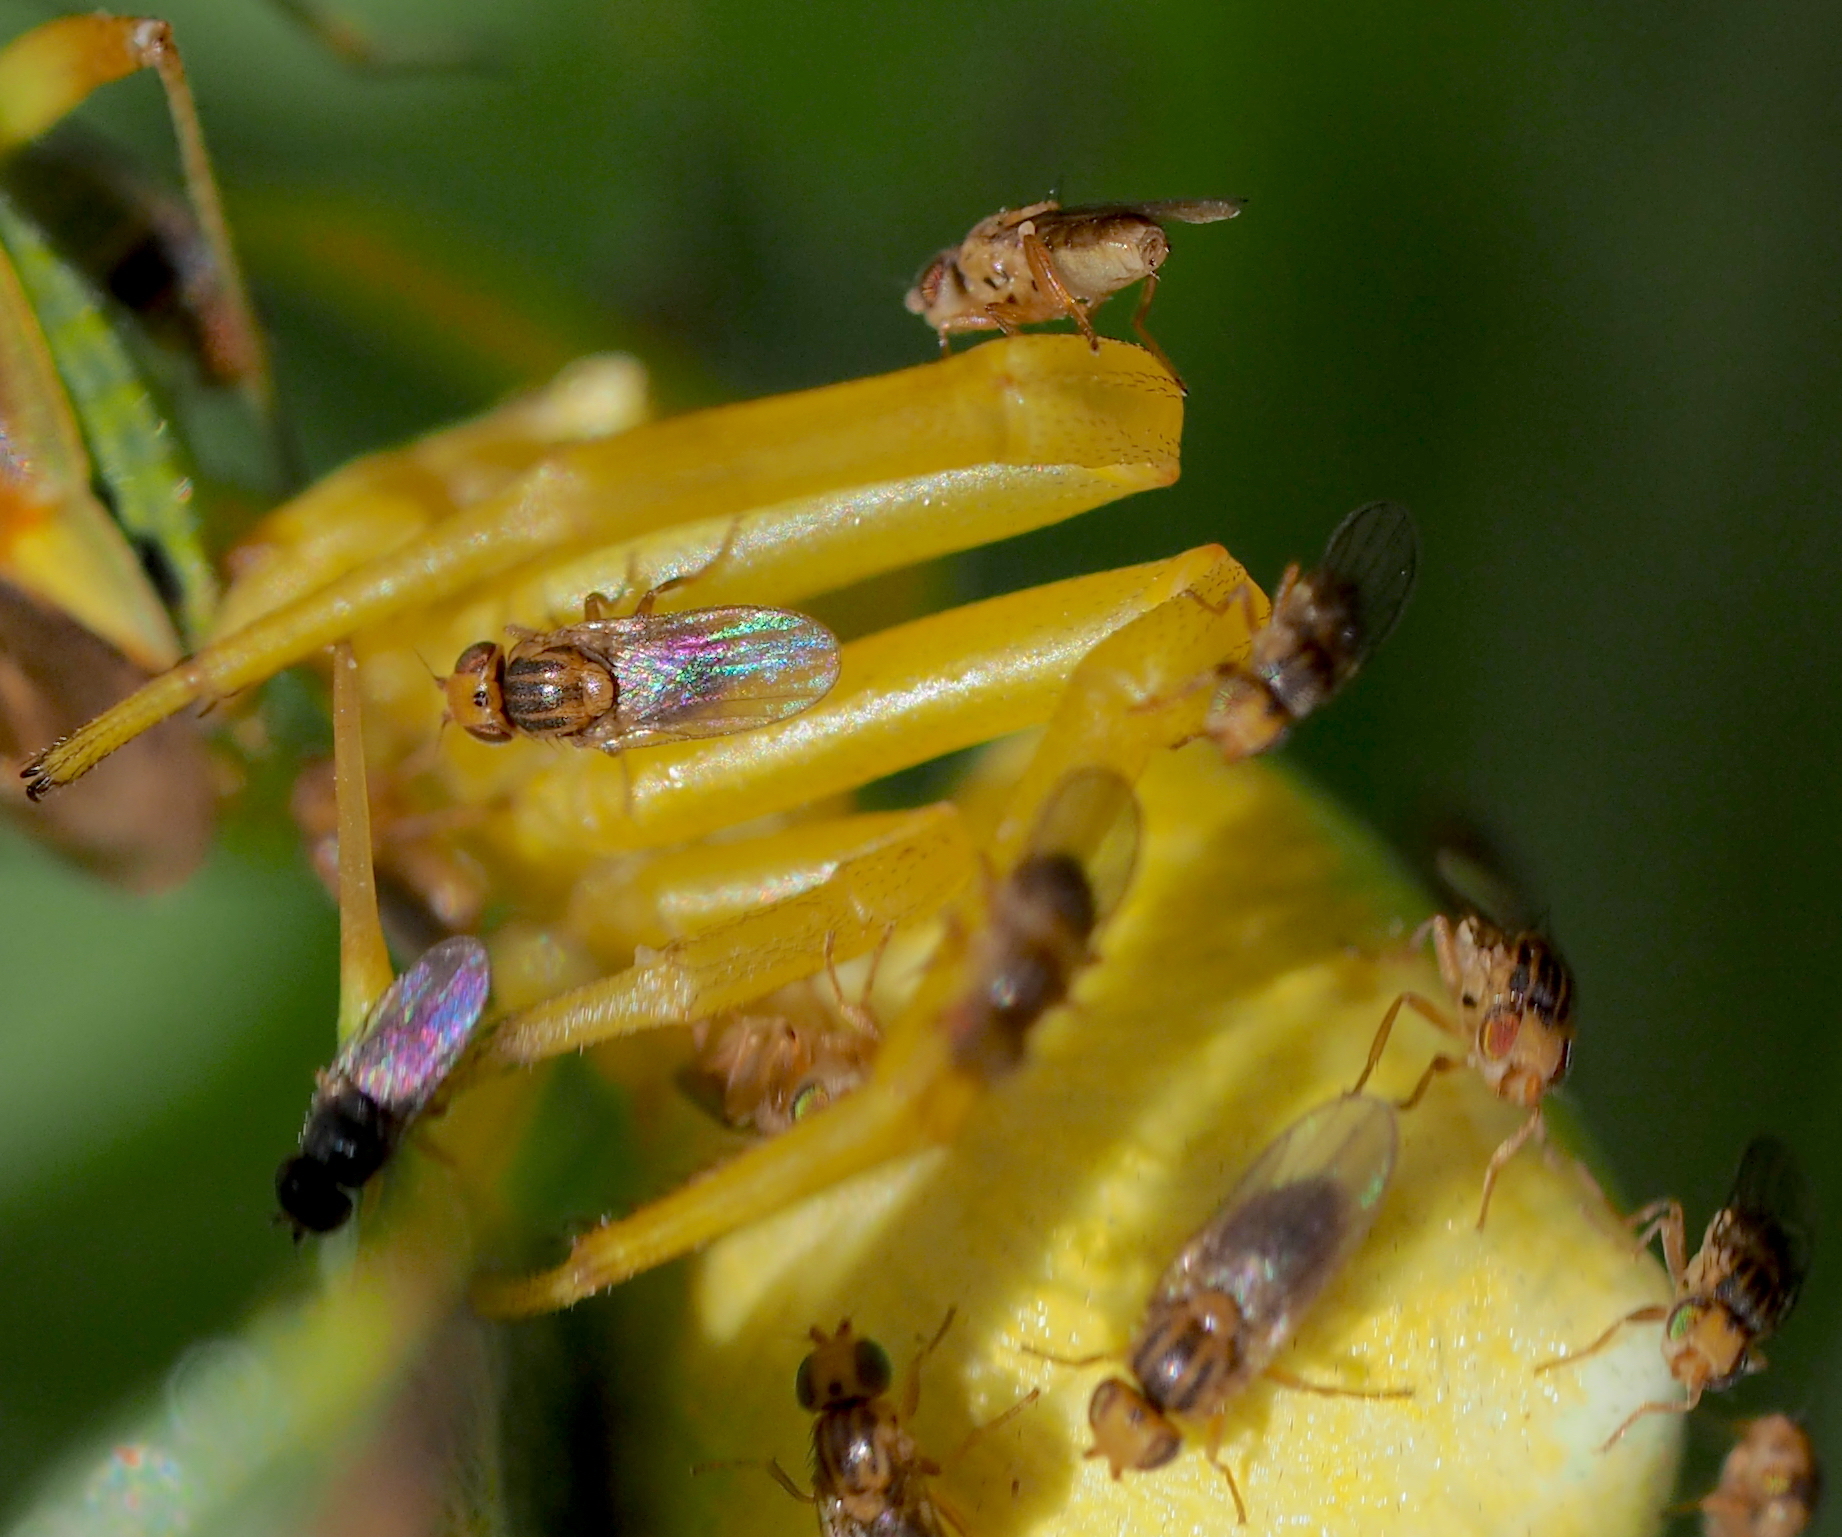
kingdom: Animalia
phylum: Arthropoda
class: Insecta
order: Diptera
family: Chloropidae
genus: Trachysiphonella
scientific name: Trachysiphonella ruficeps
